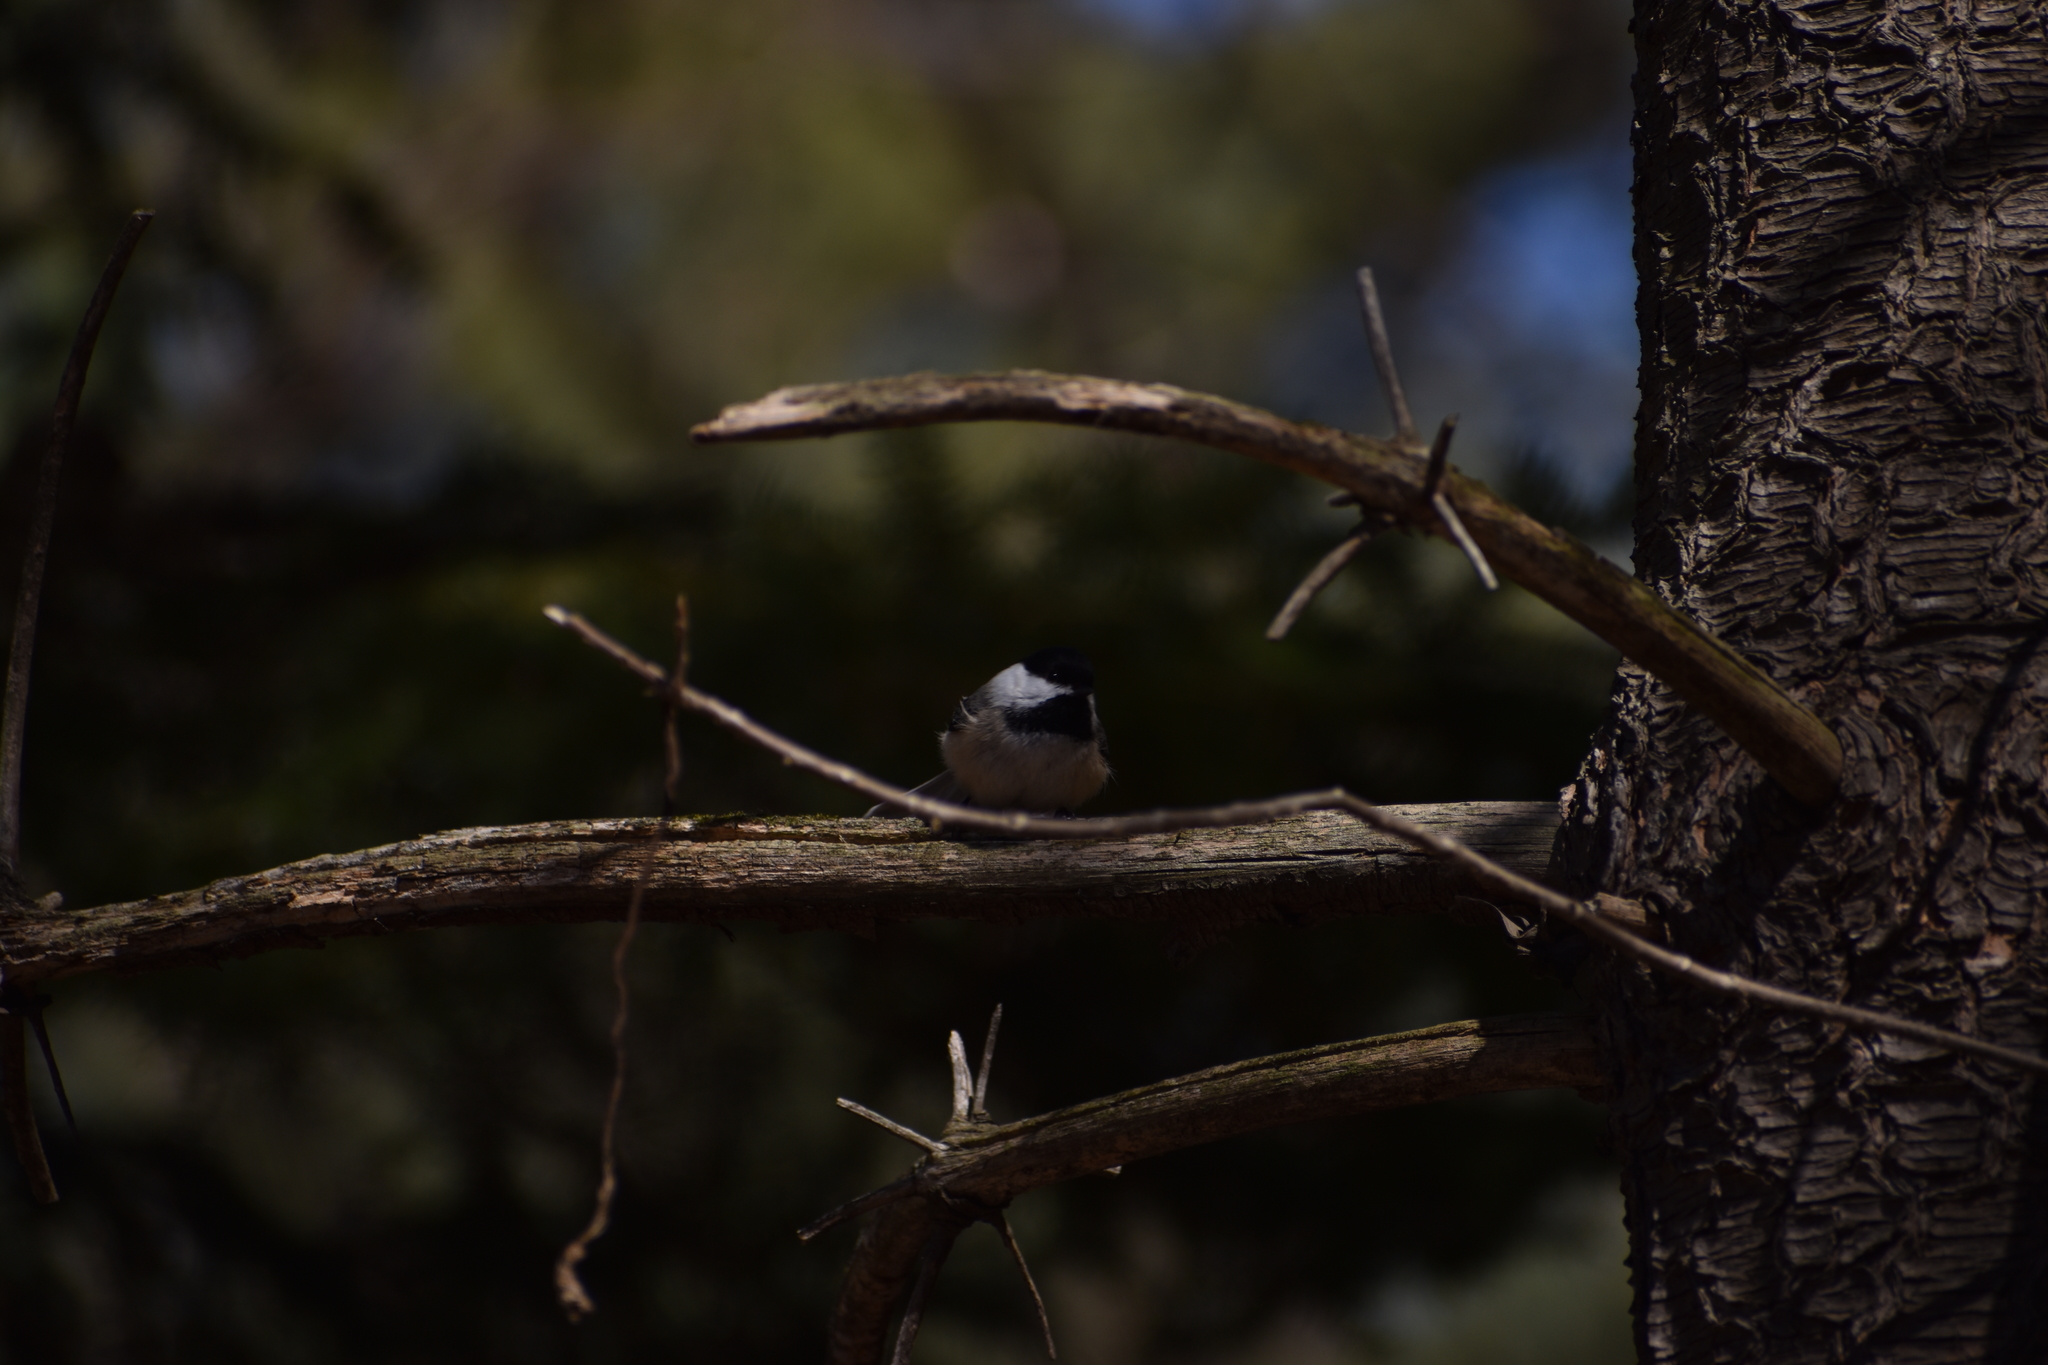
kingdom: Animalia
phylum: Chordata
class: Aves
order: Passeriformes
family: Paridae
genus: Poecile
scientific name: Poecile atricapillus
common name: Black-capped chickadee
